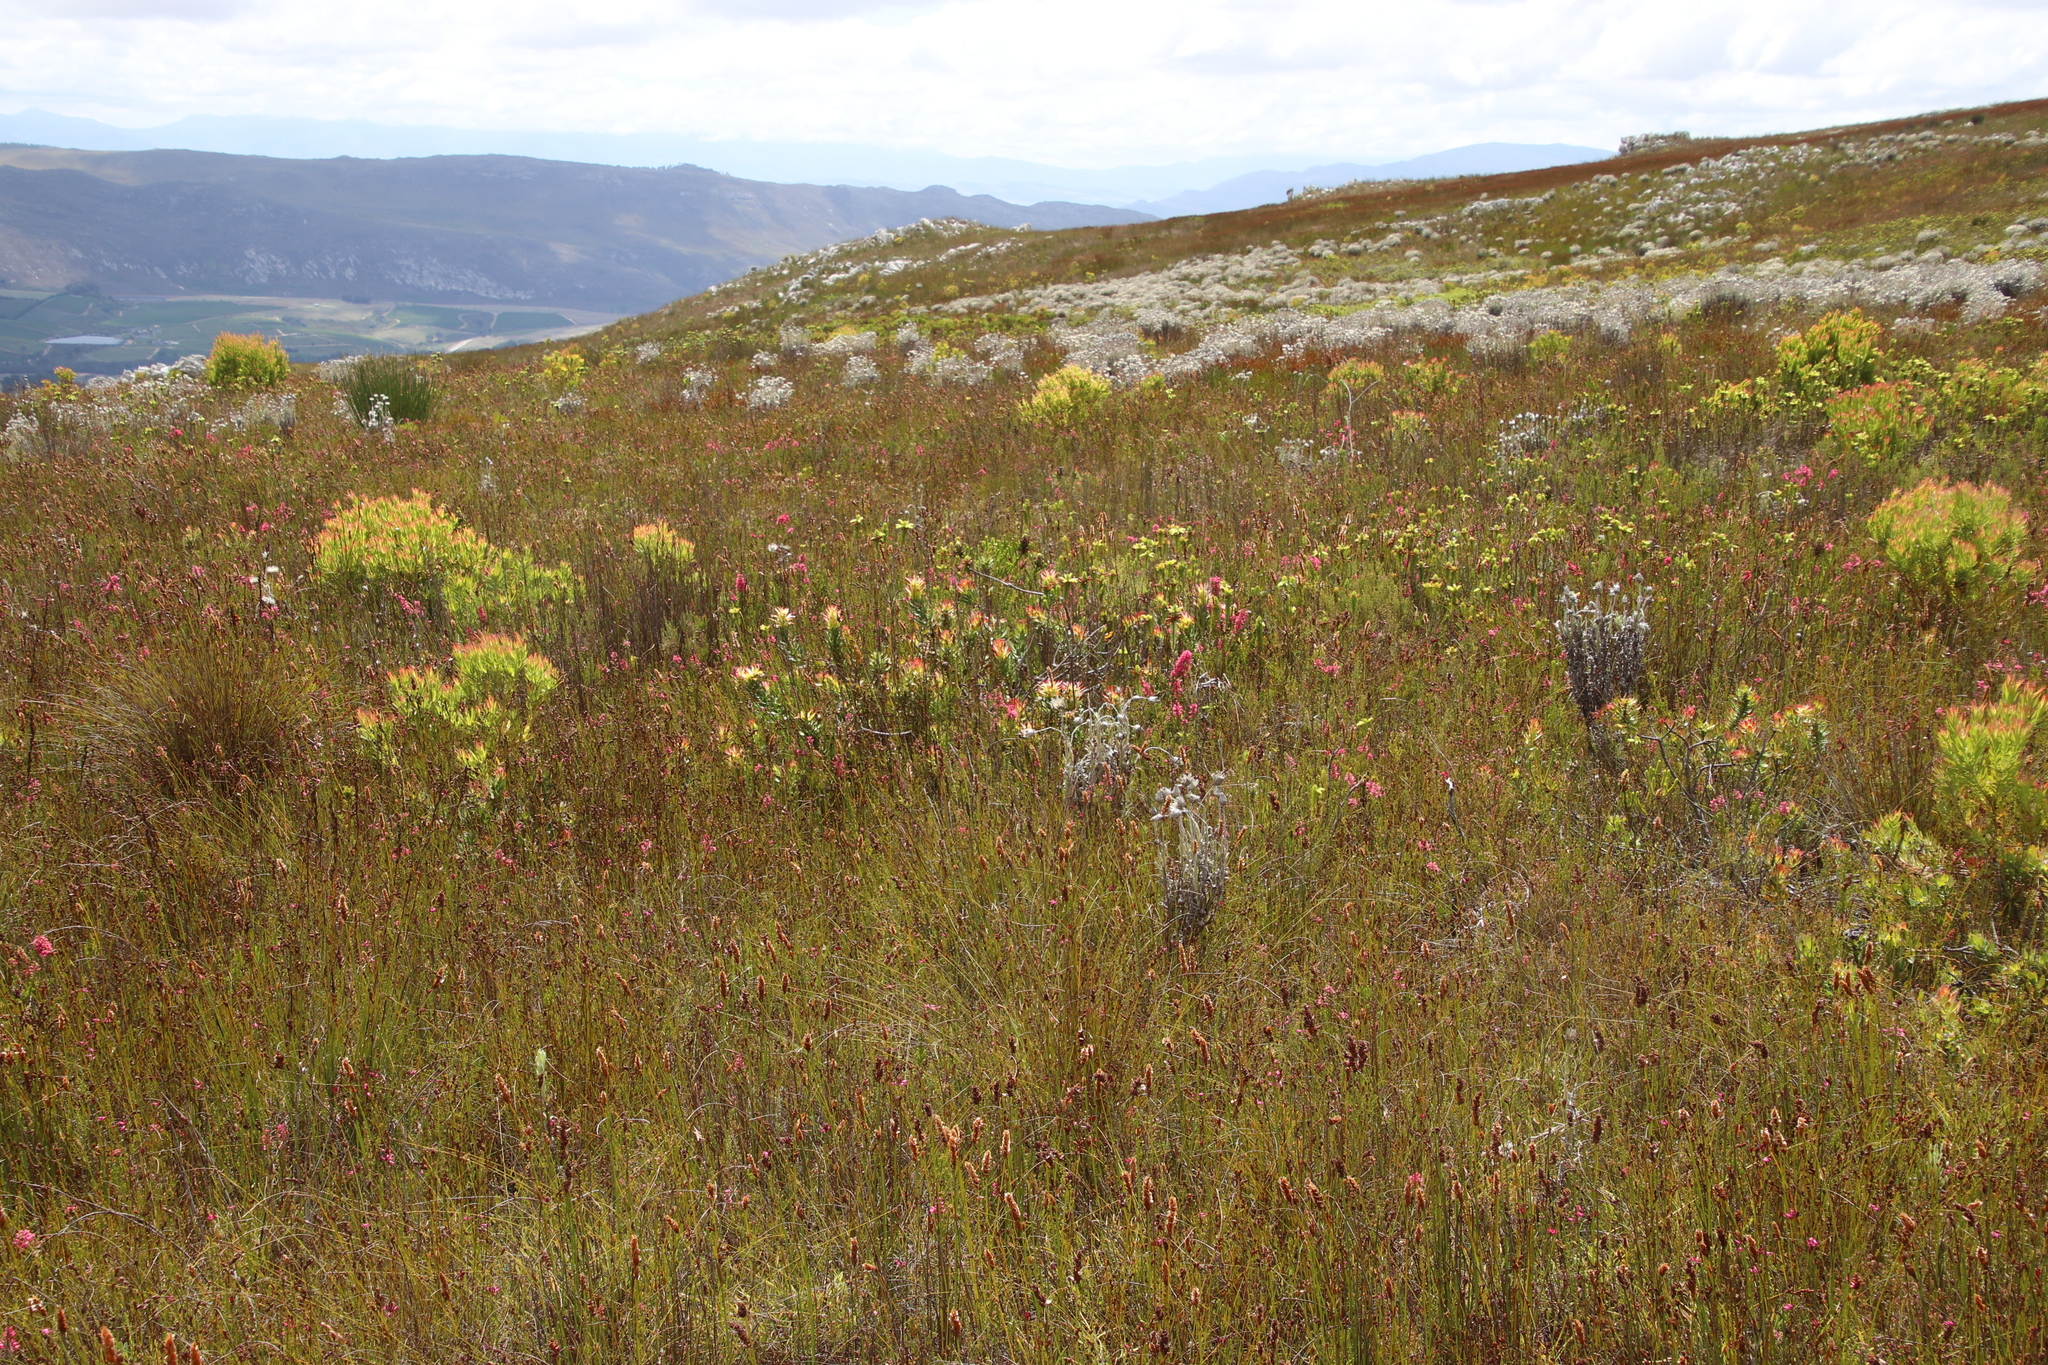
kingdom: Plantae
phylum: Tracheophyta
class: Magnoliopsida
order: Proteales
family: Proteaceae
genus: Mimetes
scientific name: Mimetes cucullatus
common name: Common pagoda
